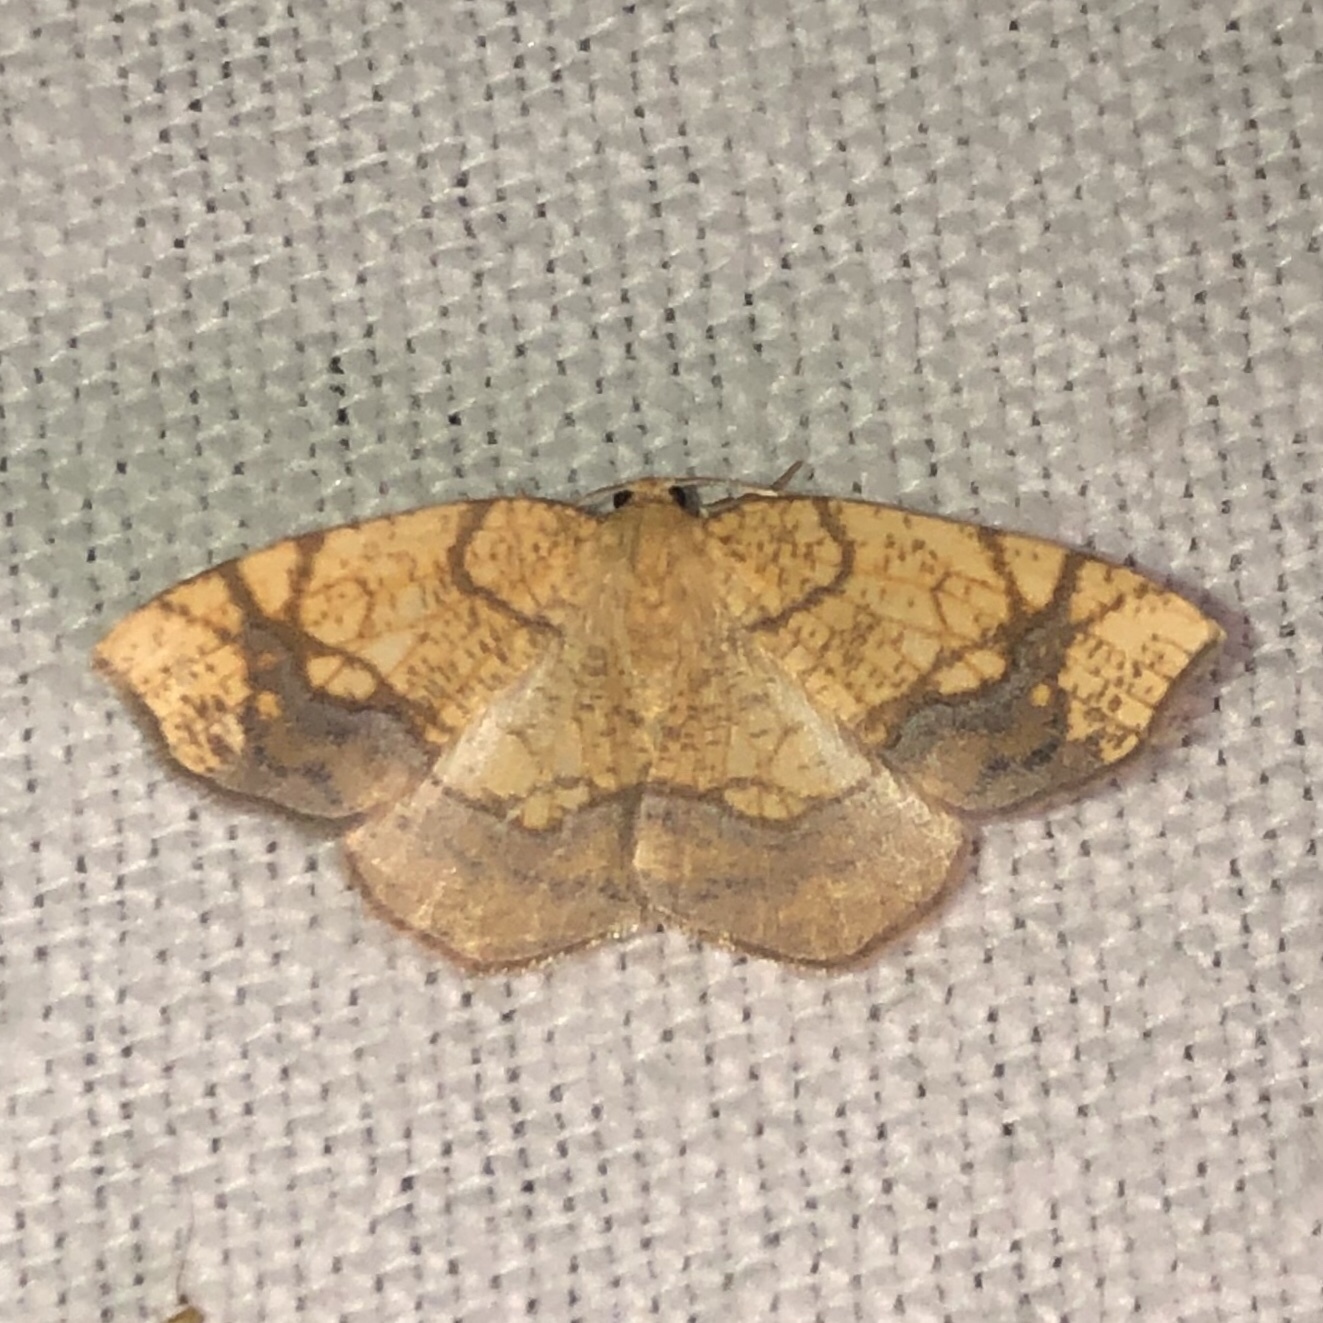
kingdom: Animalia
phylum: Arthropoda
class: Insecta
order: Lepidoptera
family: Geometridae
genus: Nematocampa
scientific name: Nematocampa resistaria
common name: Horned spanworm moth
